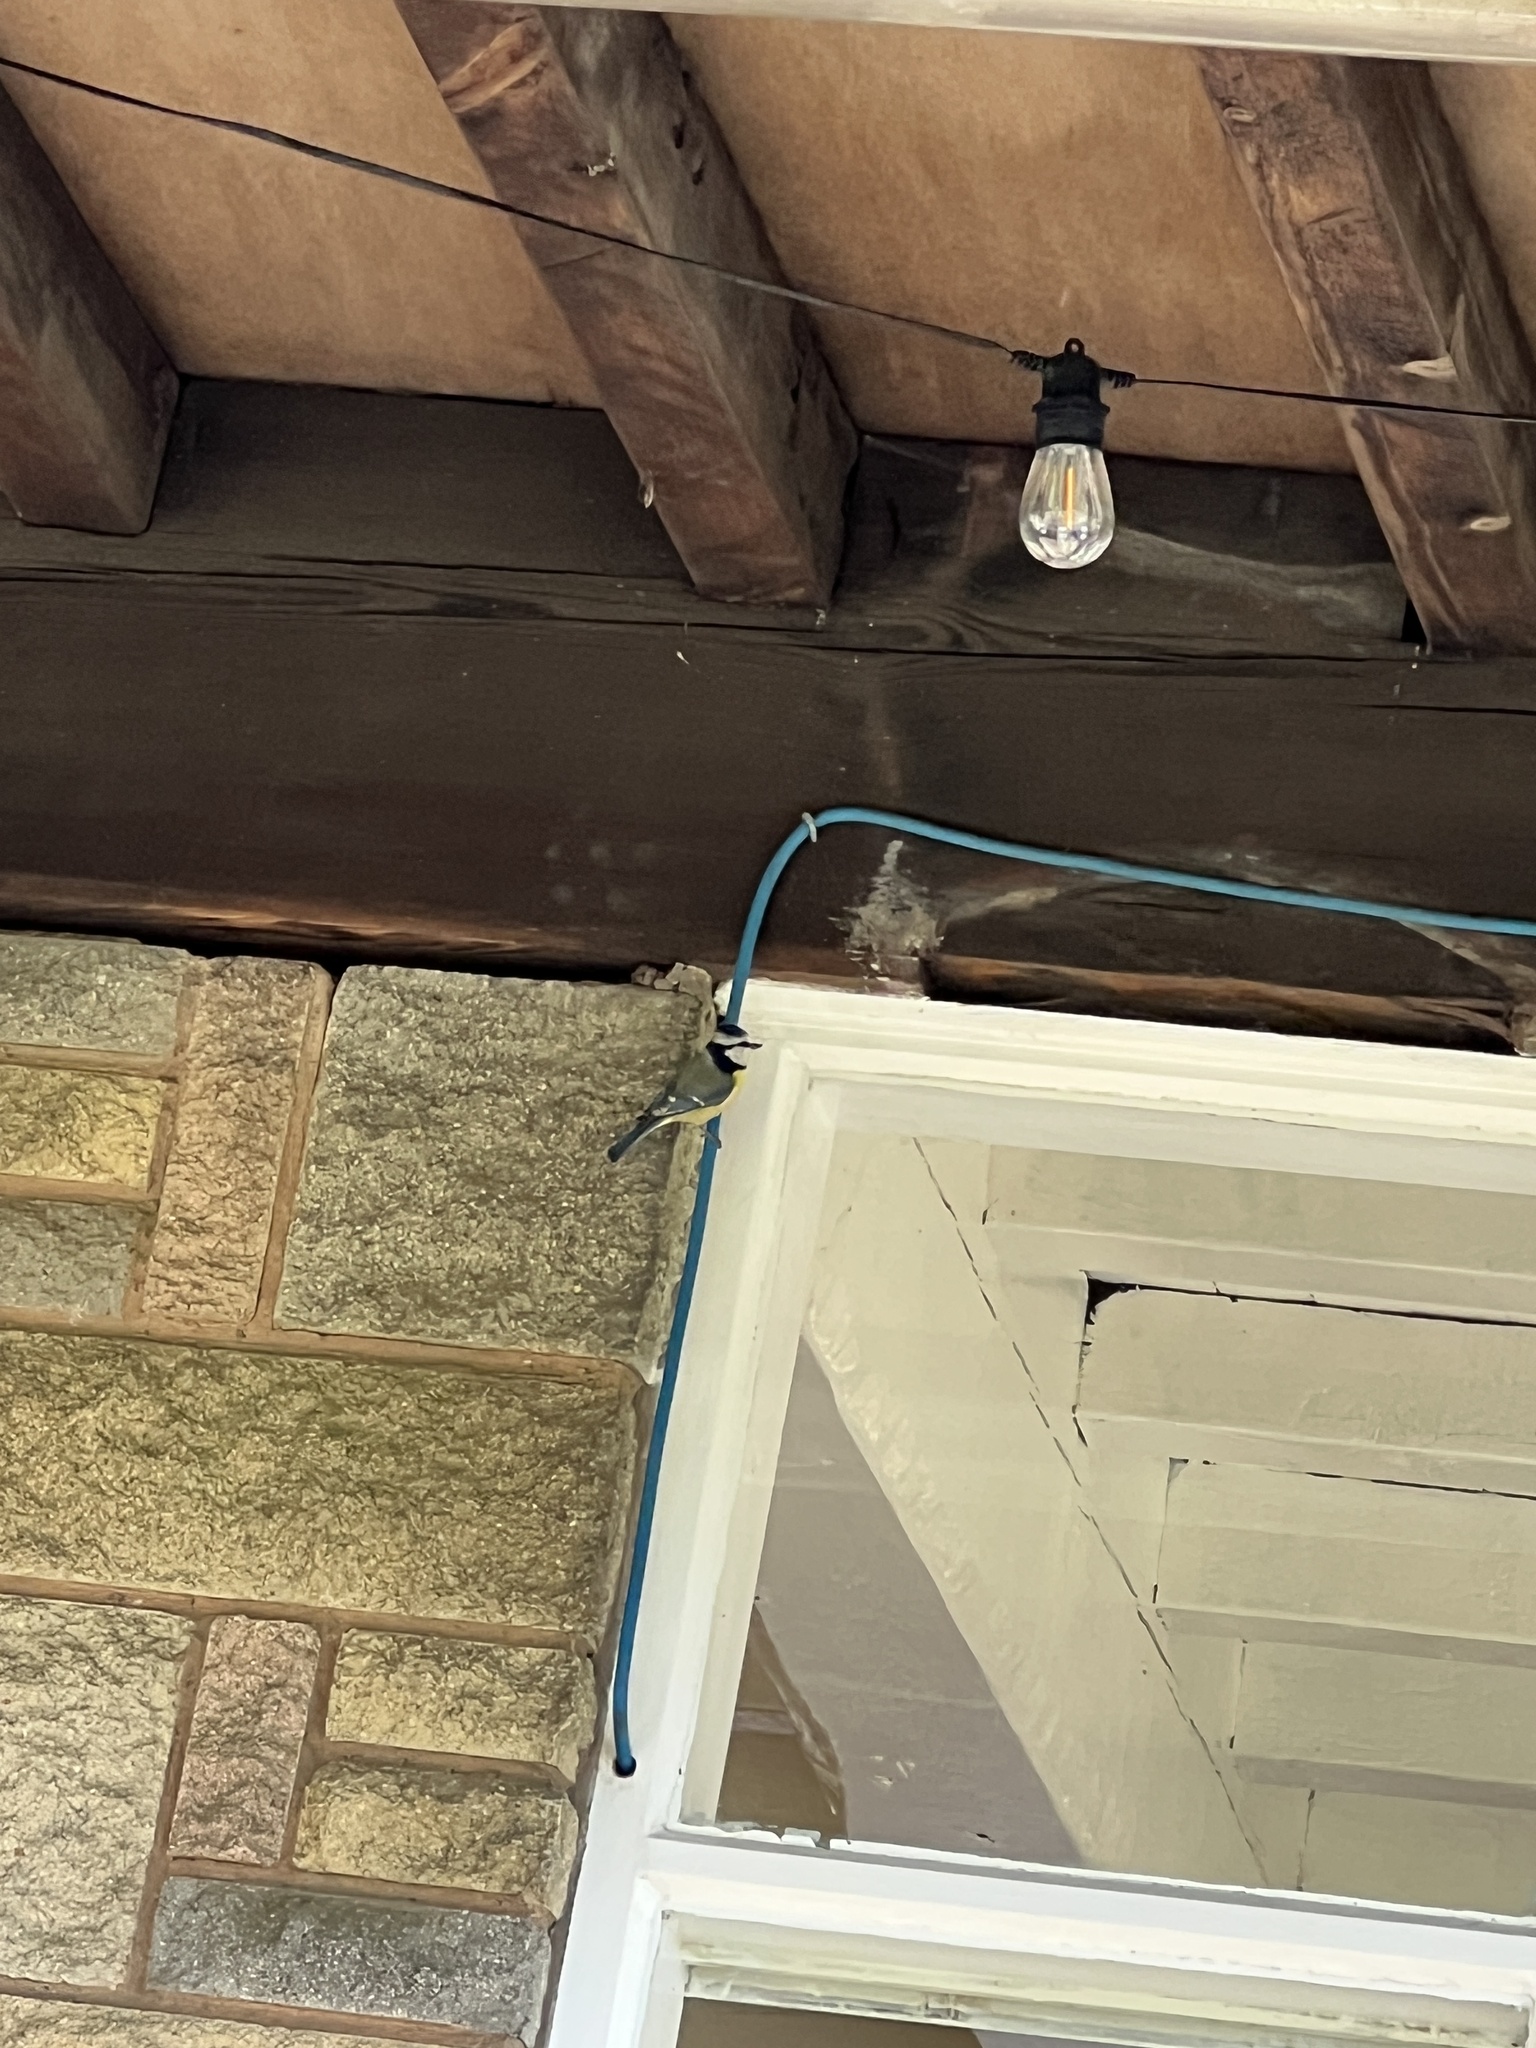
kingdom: Animalia
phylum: Chordata
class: Aves
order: Passeriformes
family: Paridae
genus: Cyanistes
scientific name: Cyanistes caeruleus
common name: Eurasian blue tit
